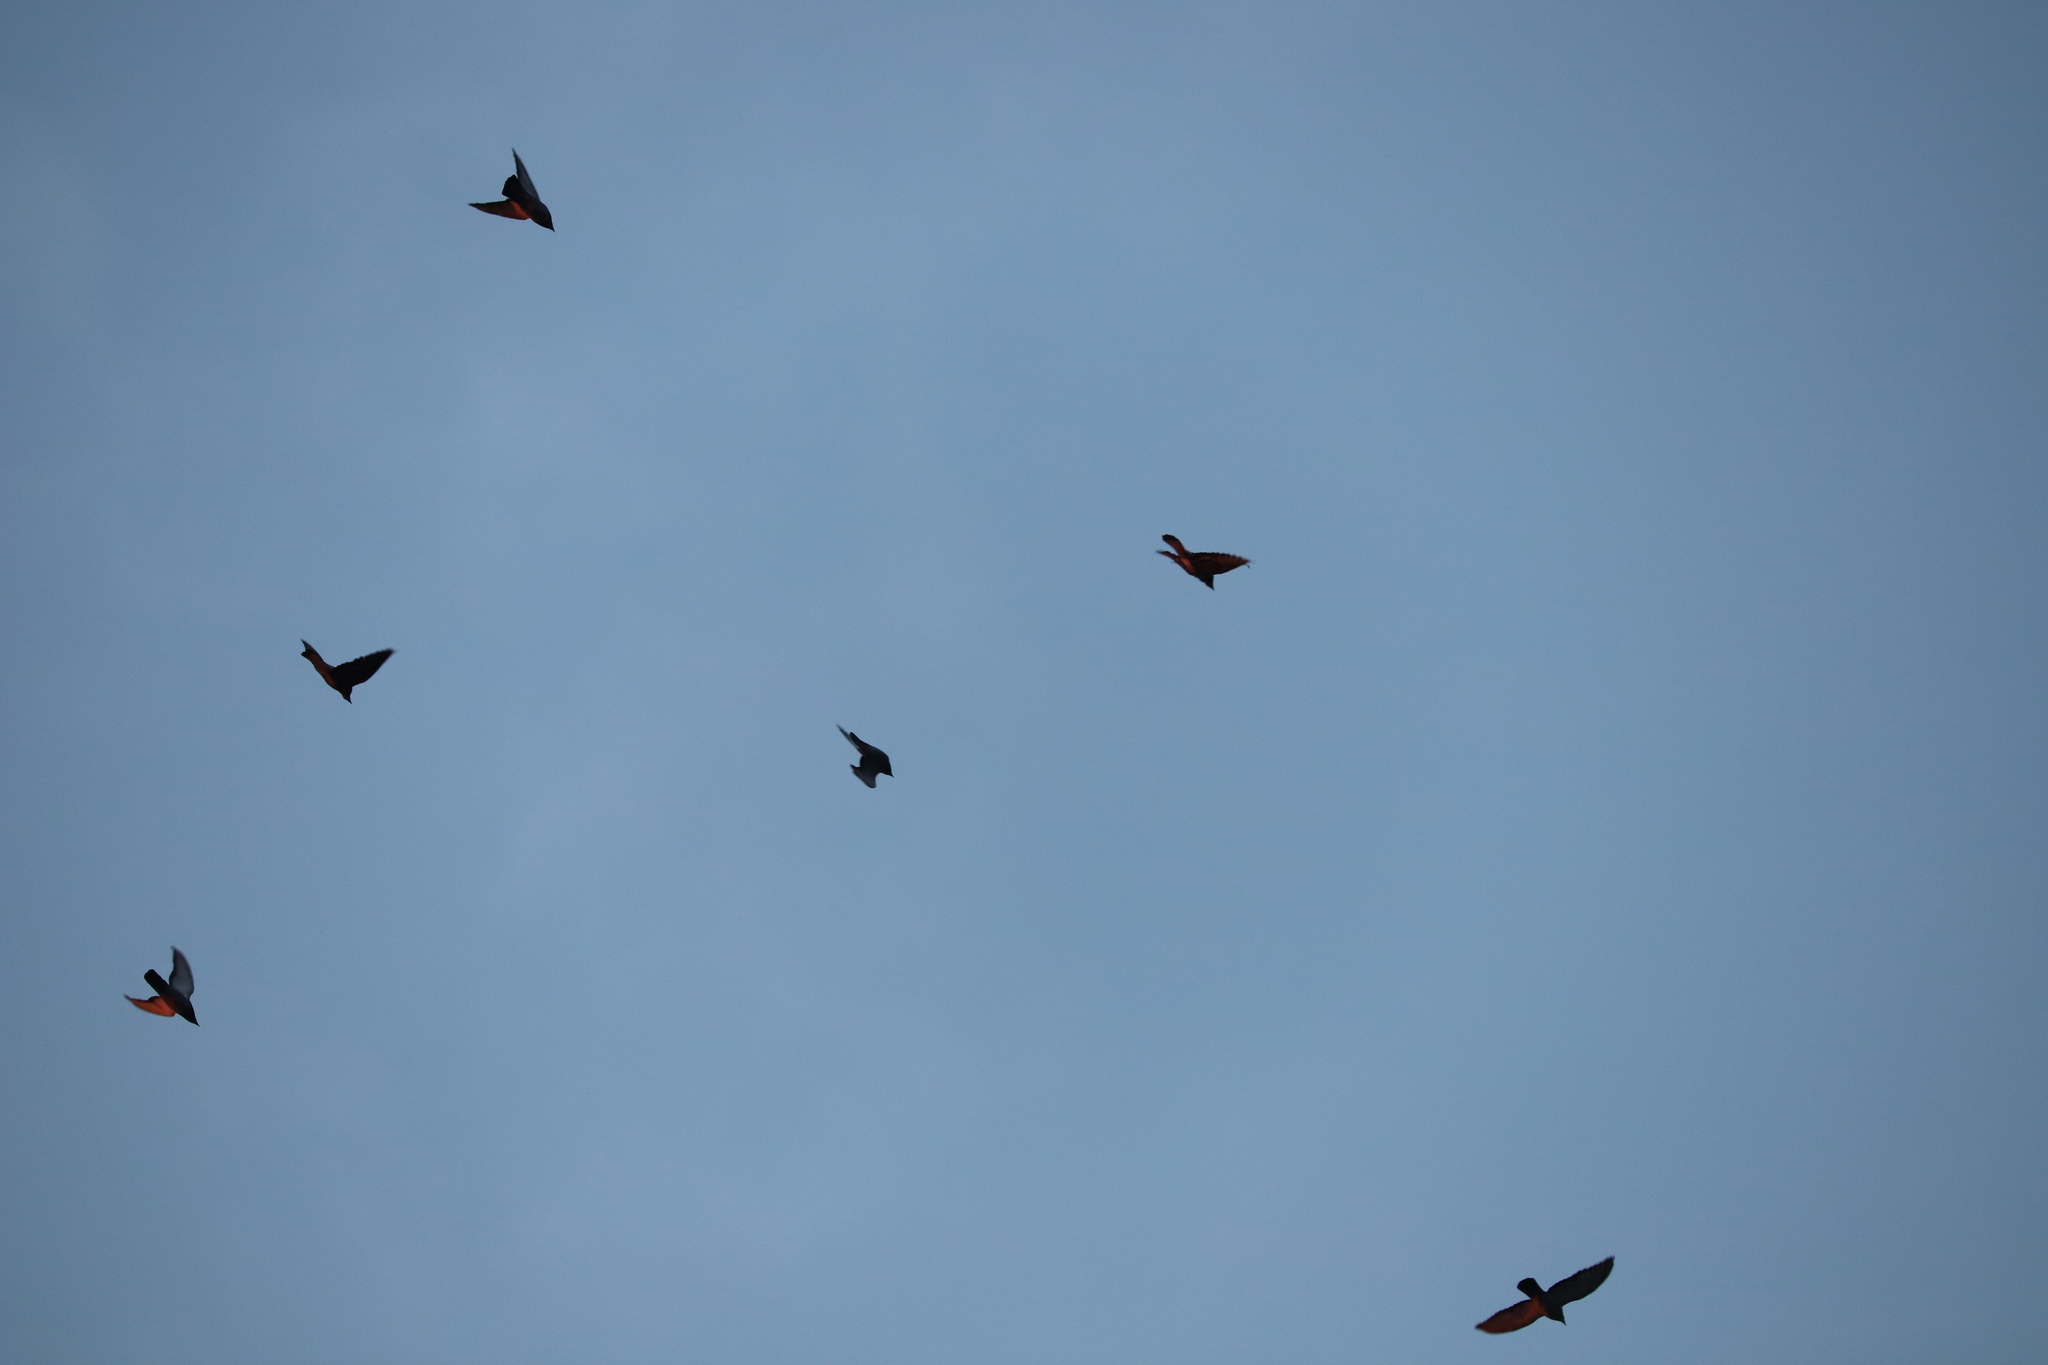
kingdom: Animalia
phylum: Chordata
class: Aves
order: Passeriformes
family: Sturnidae
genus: Sturnus
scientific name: Sturnus vulgaris
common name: Common starling
